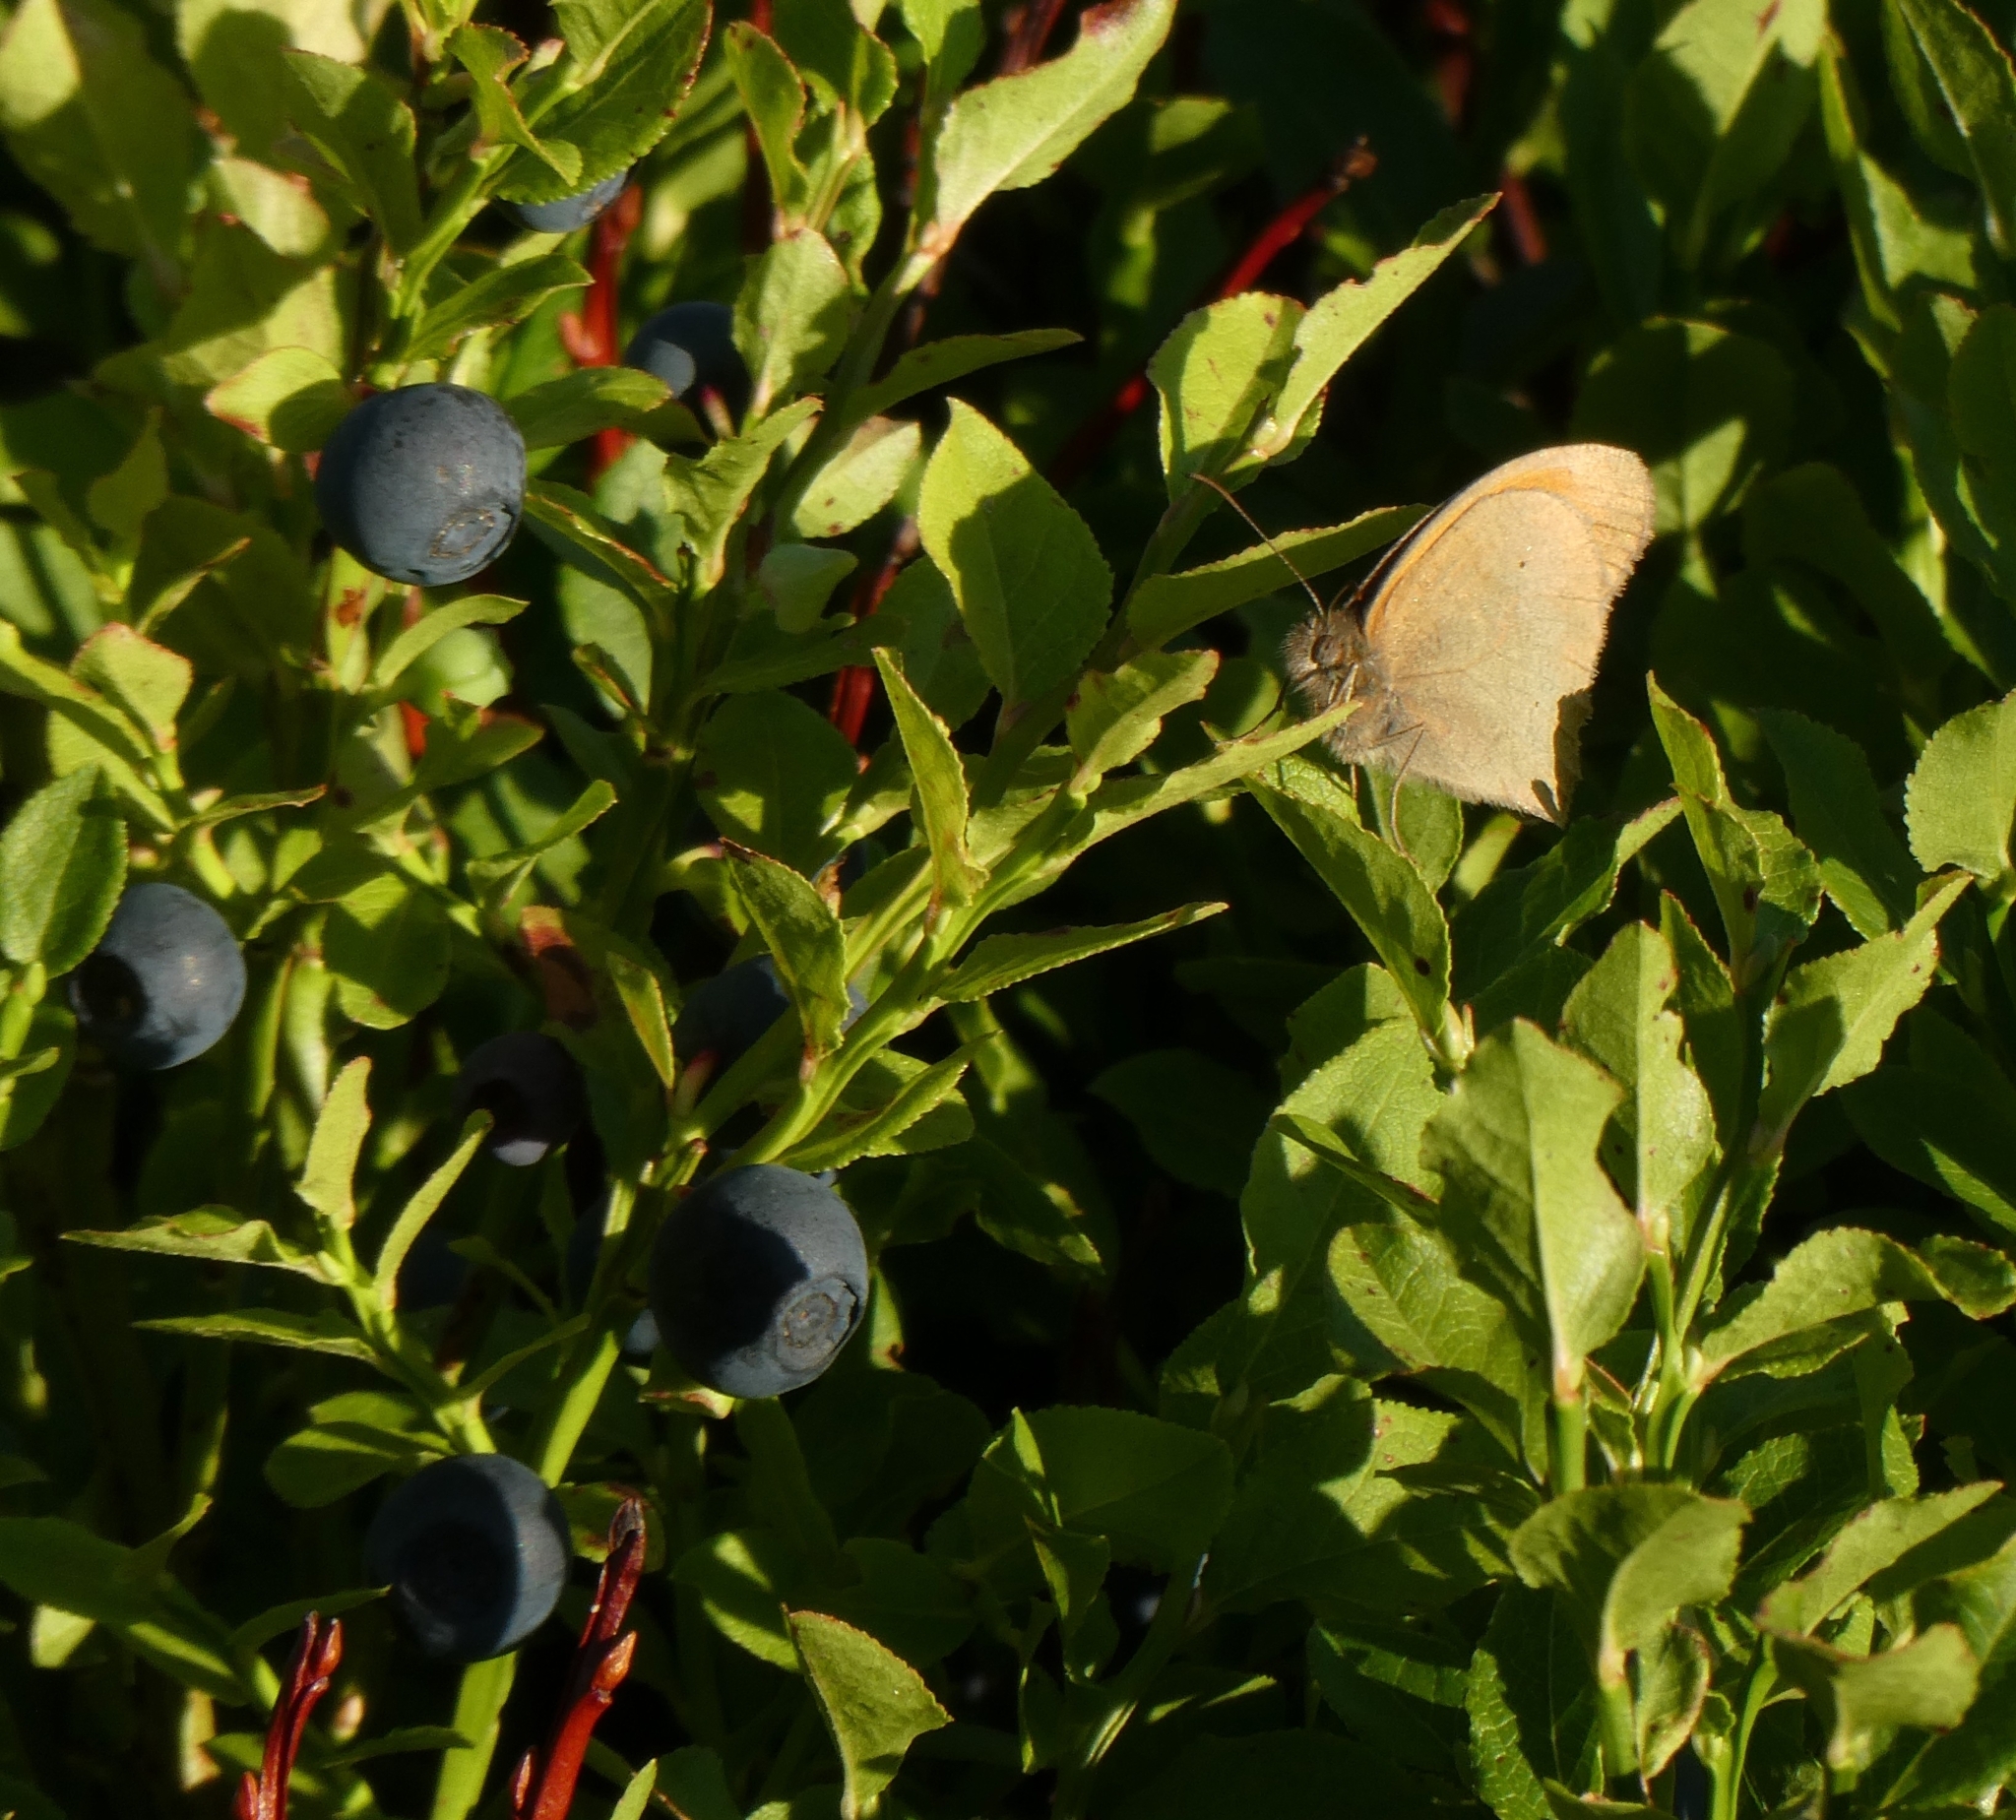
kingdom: Animalia
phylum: Arthropoda
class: Insecta
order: Lepidoptera
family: Nymphalidae
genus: Maniola
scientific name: Maniola jurtina
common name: Meadow brown
